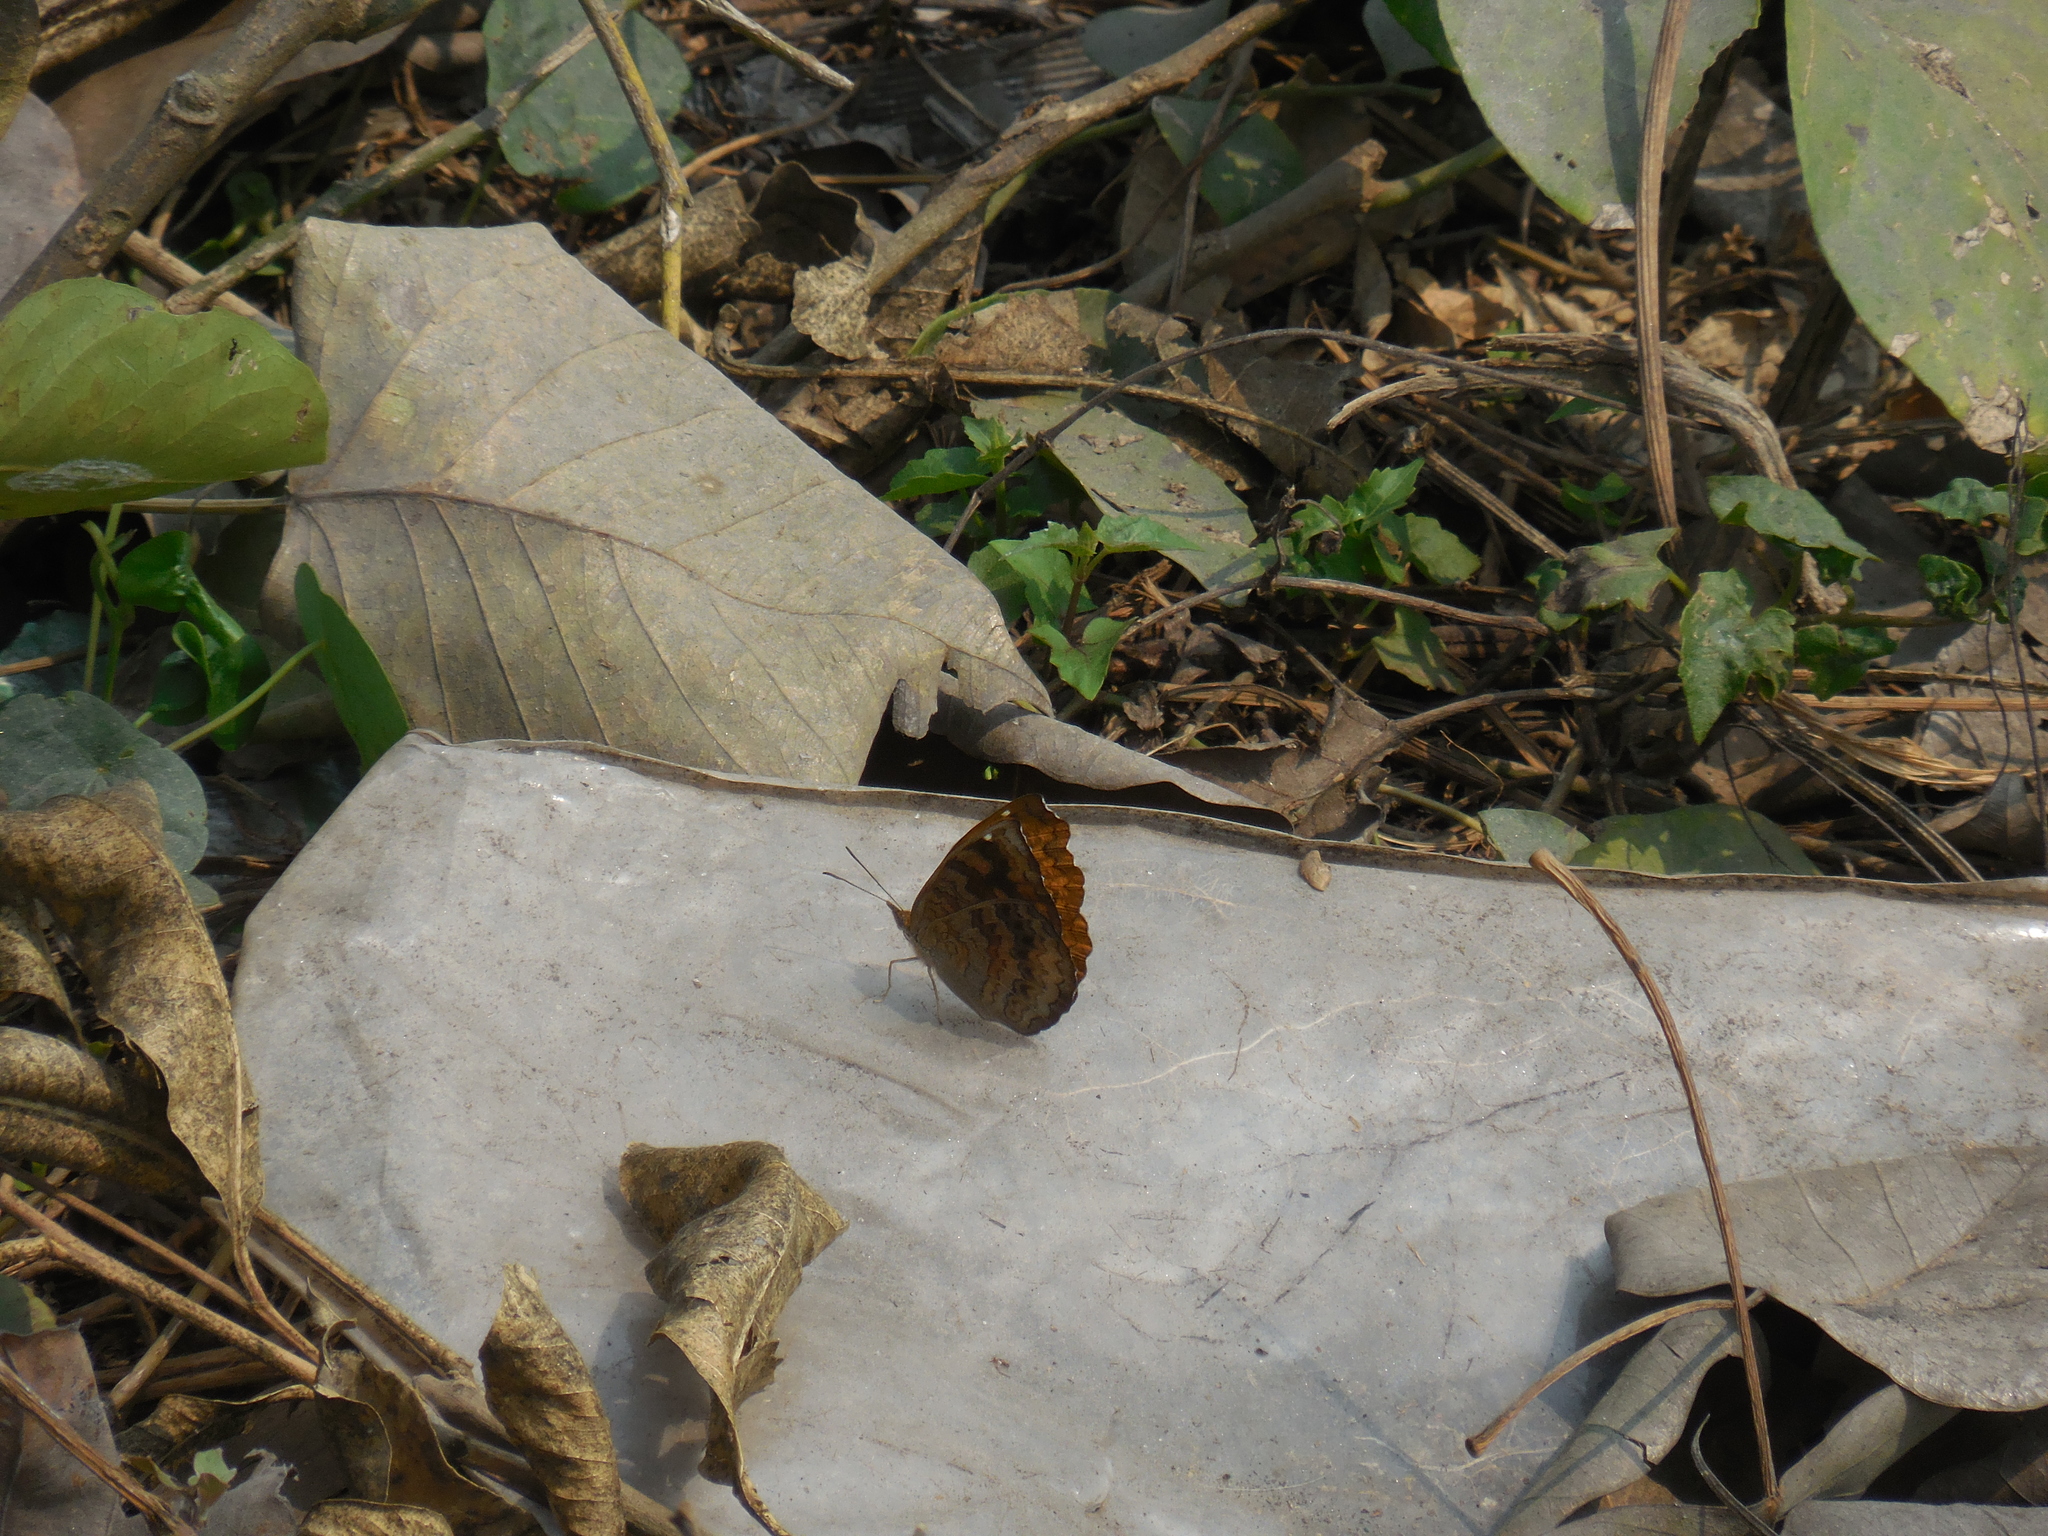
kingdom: Animalia
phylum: Arthropoda
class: Insecta
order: Lepidoptera
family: Nymphalidae
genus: Ariadne
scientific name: Ariadne merione
